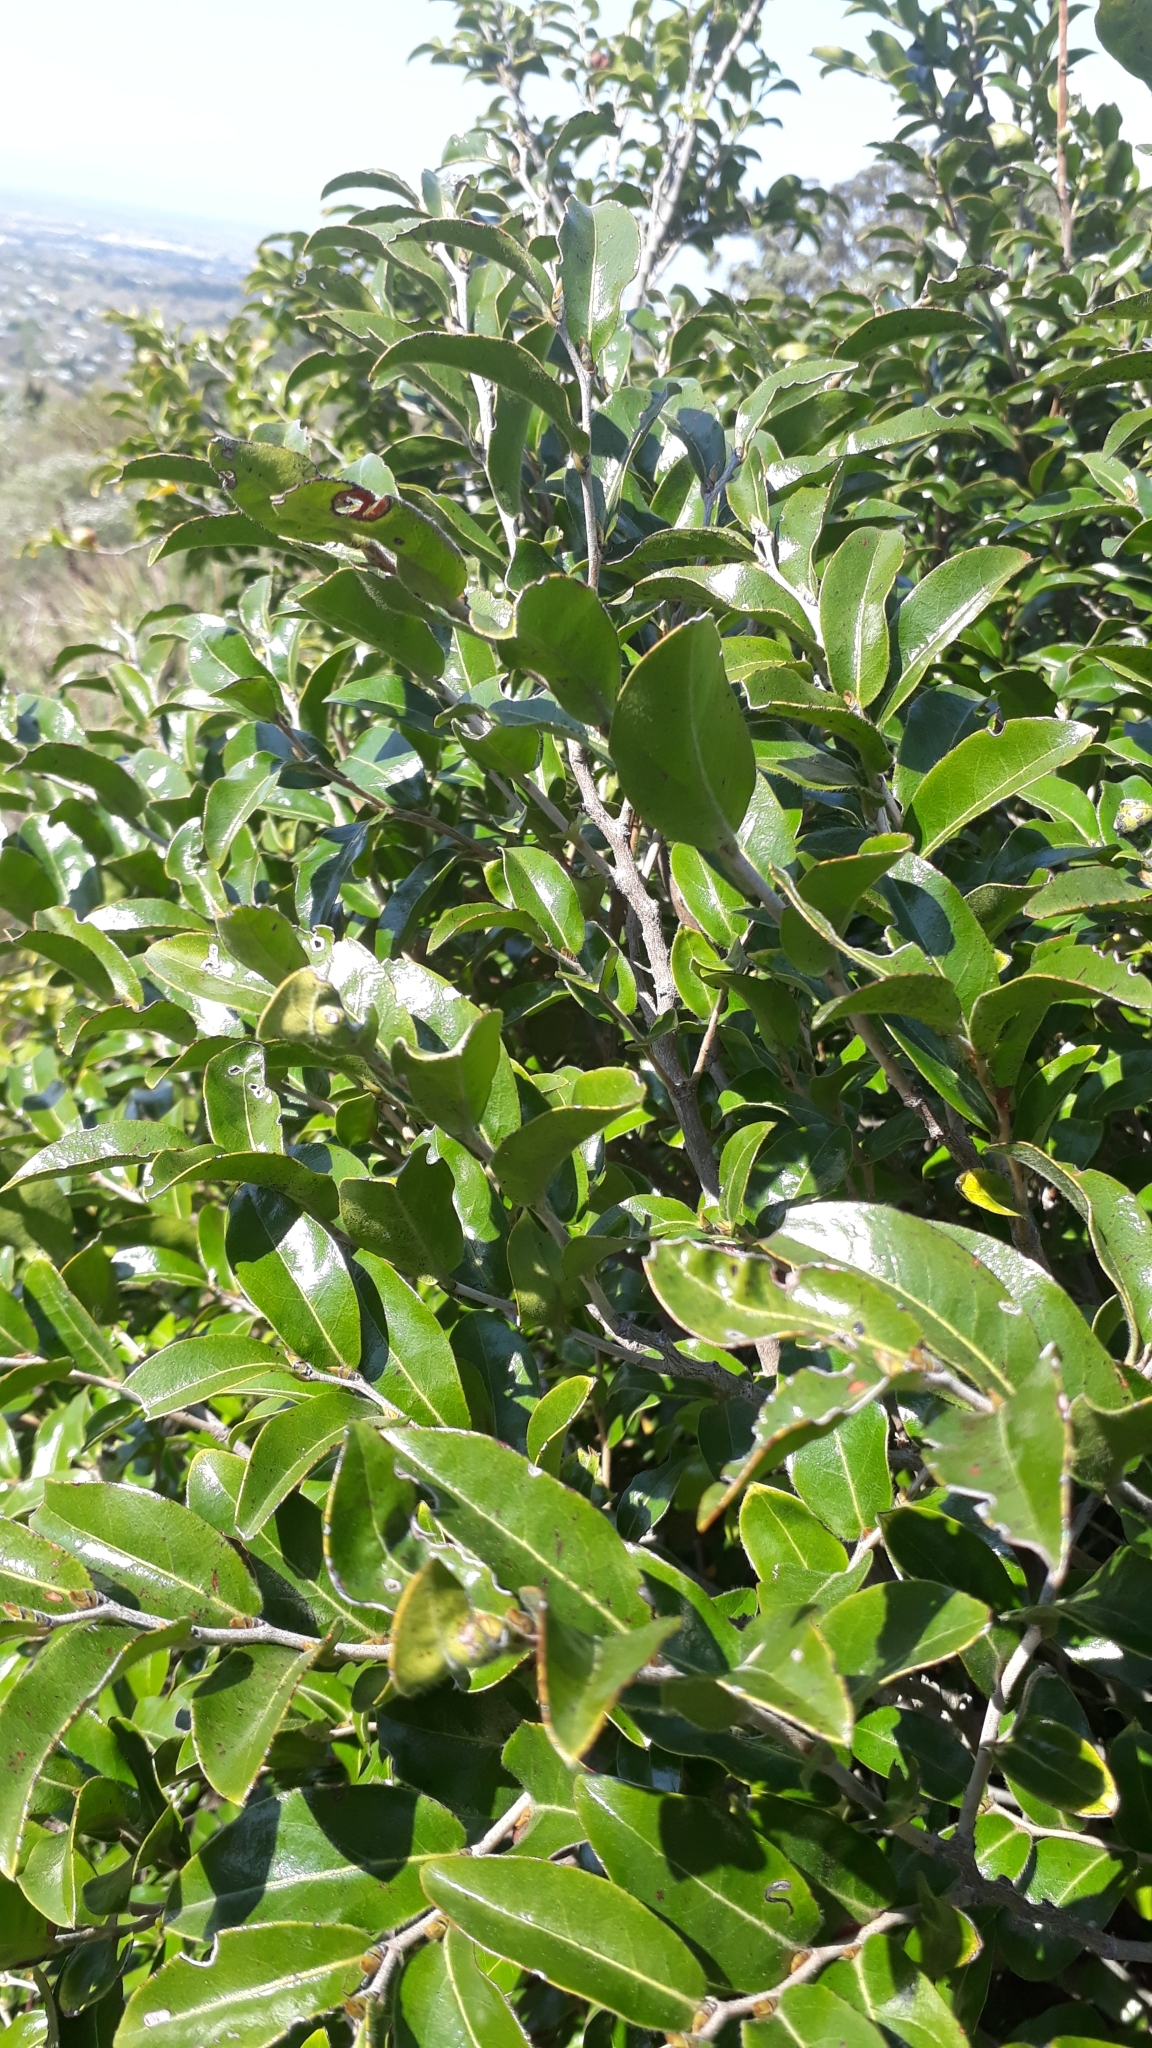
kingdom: Plantae
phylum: Tracheophyta
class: Magnoliopsida
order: Ericales
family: Ebenaceae
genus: Diospyros
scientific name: Diospyros whyteana
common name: Bladder-nut
